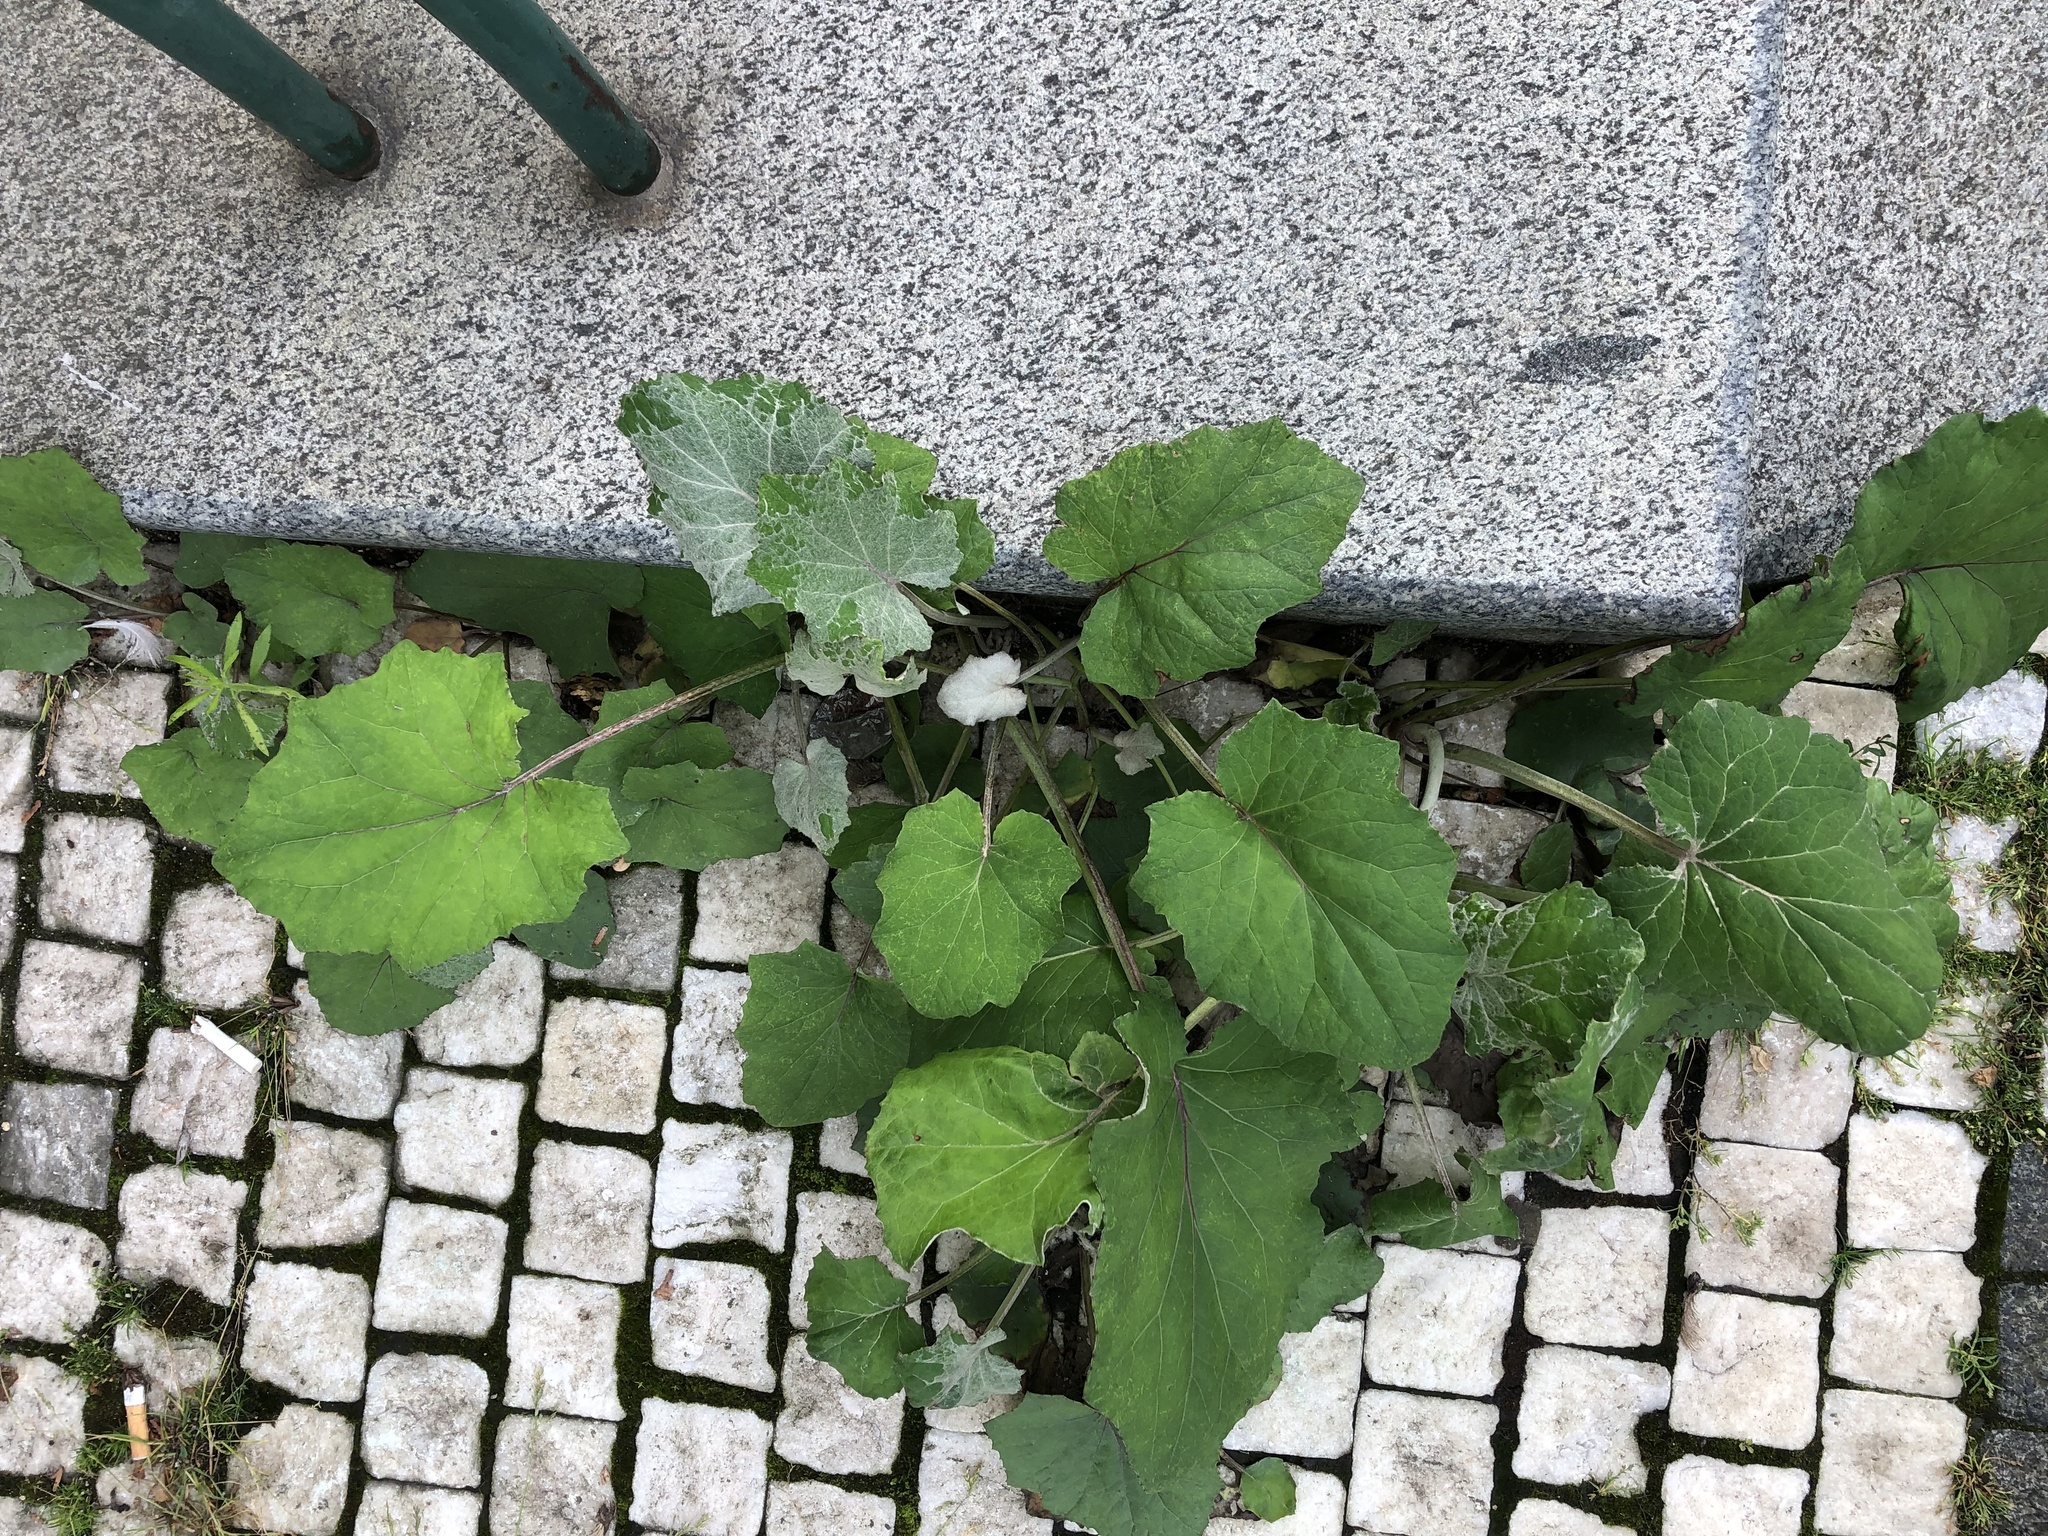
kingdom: Plantae
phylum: Tracheophyta
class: Magnoliopsida
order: Asterales
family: Asteraceae
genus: Tussilago
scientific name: Tussilago farfara
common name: Coltsfoot
